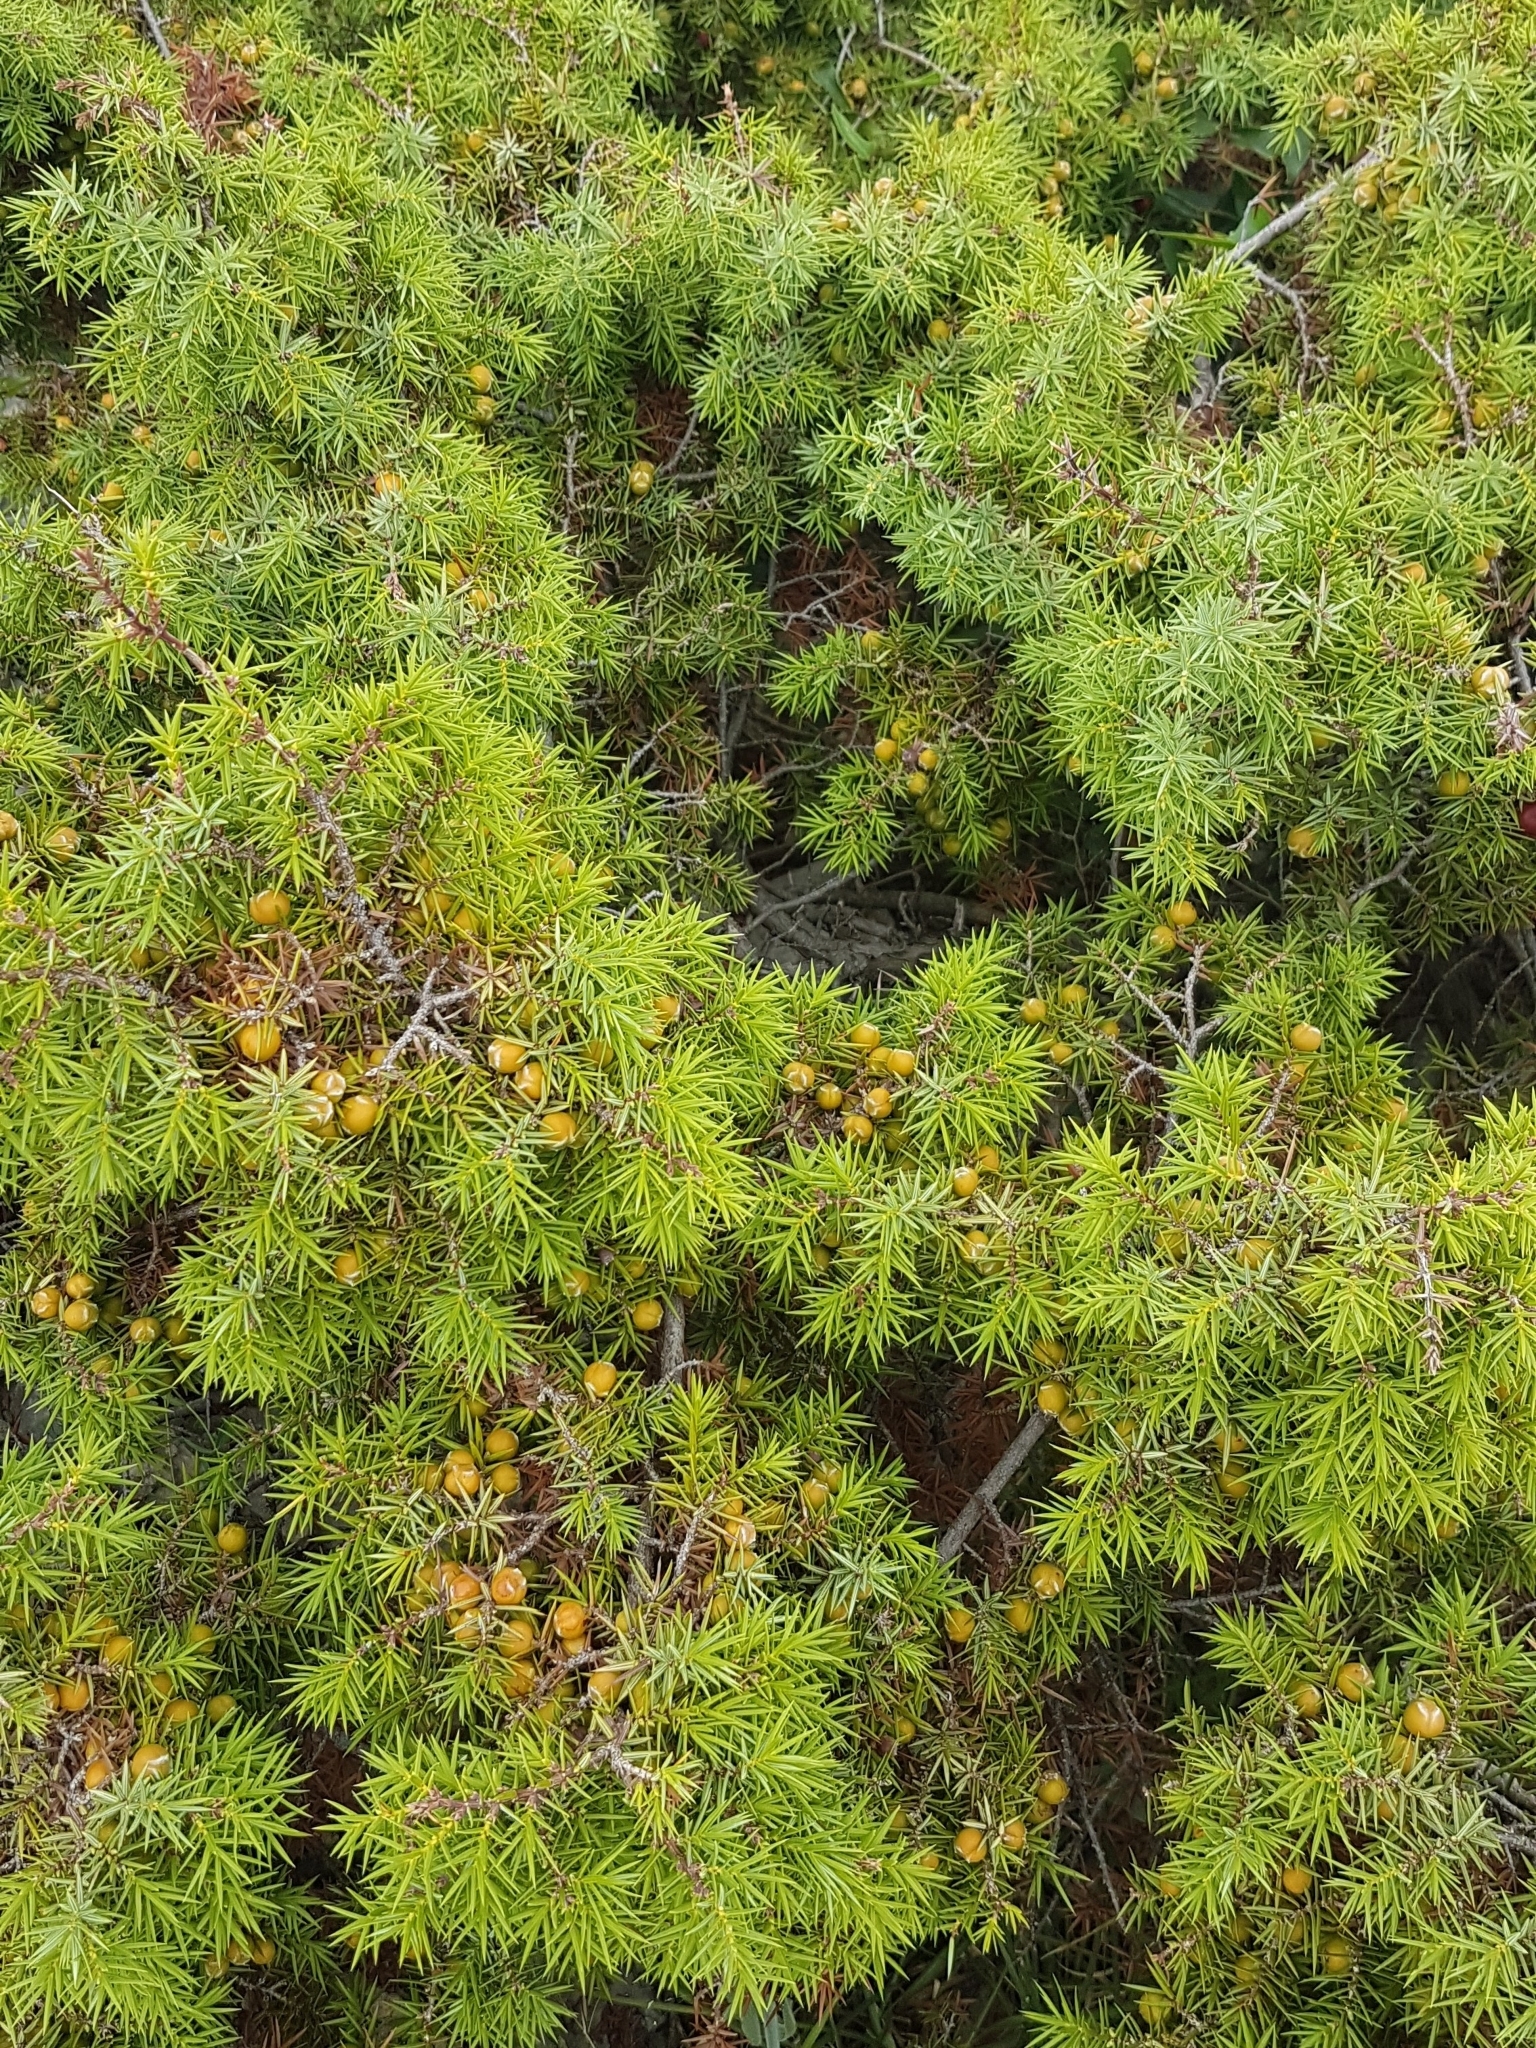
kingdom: Plantae
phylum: Tracheophyta
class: Pinopsida
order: Pinales
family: Cupressaceae
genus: Juniperus
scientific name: Juniperus oxycedrus
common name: Prickly juniper
